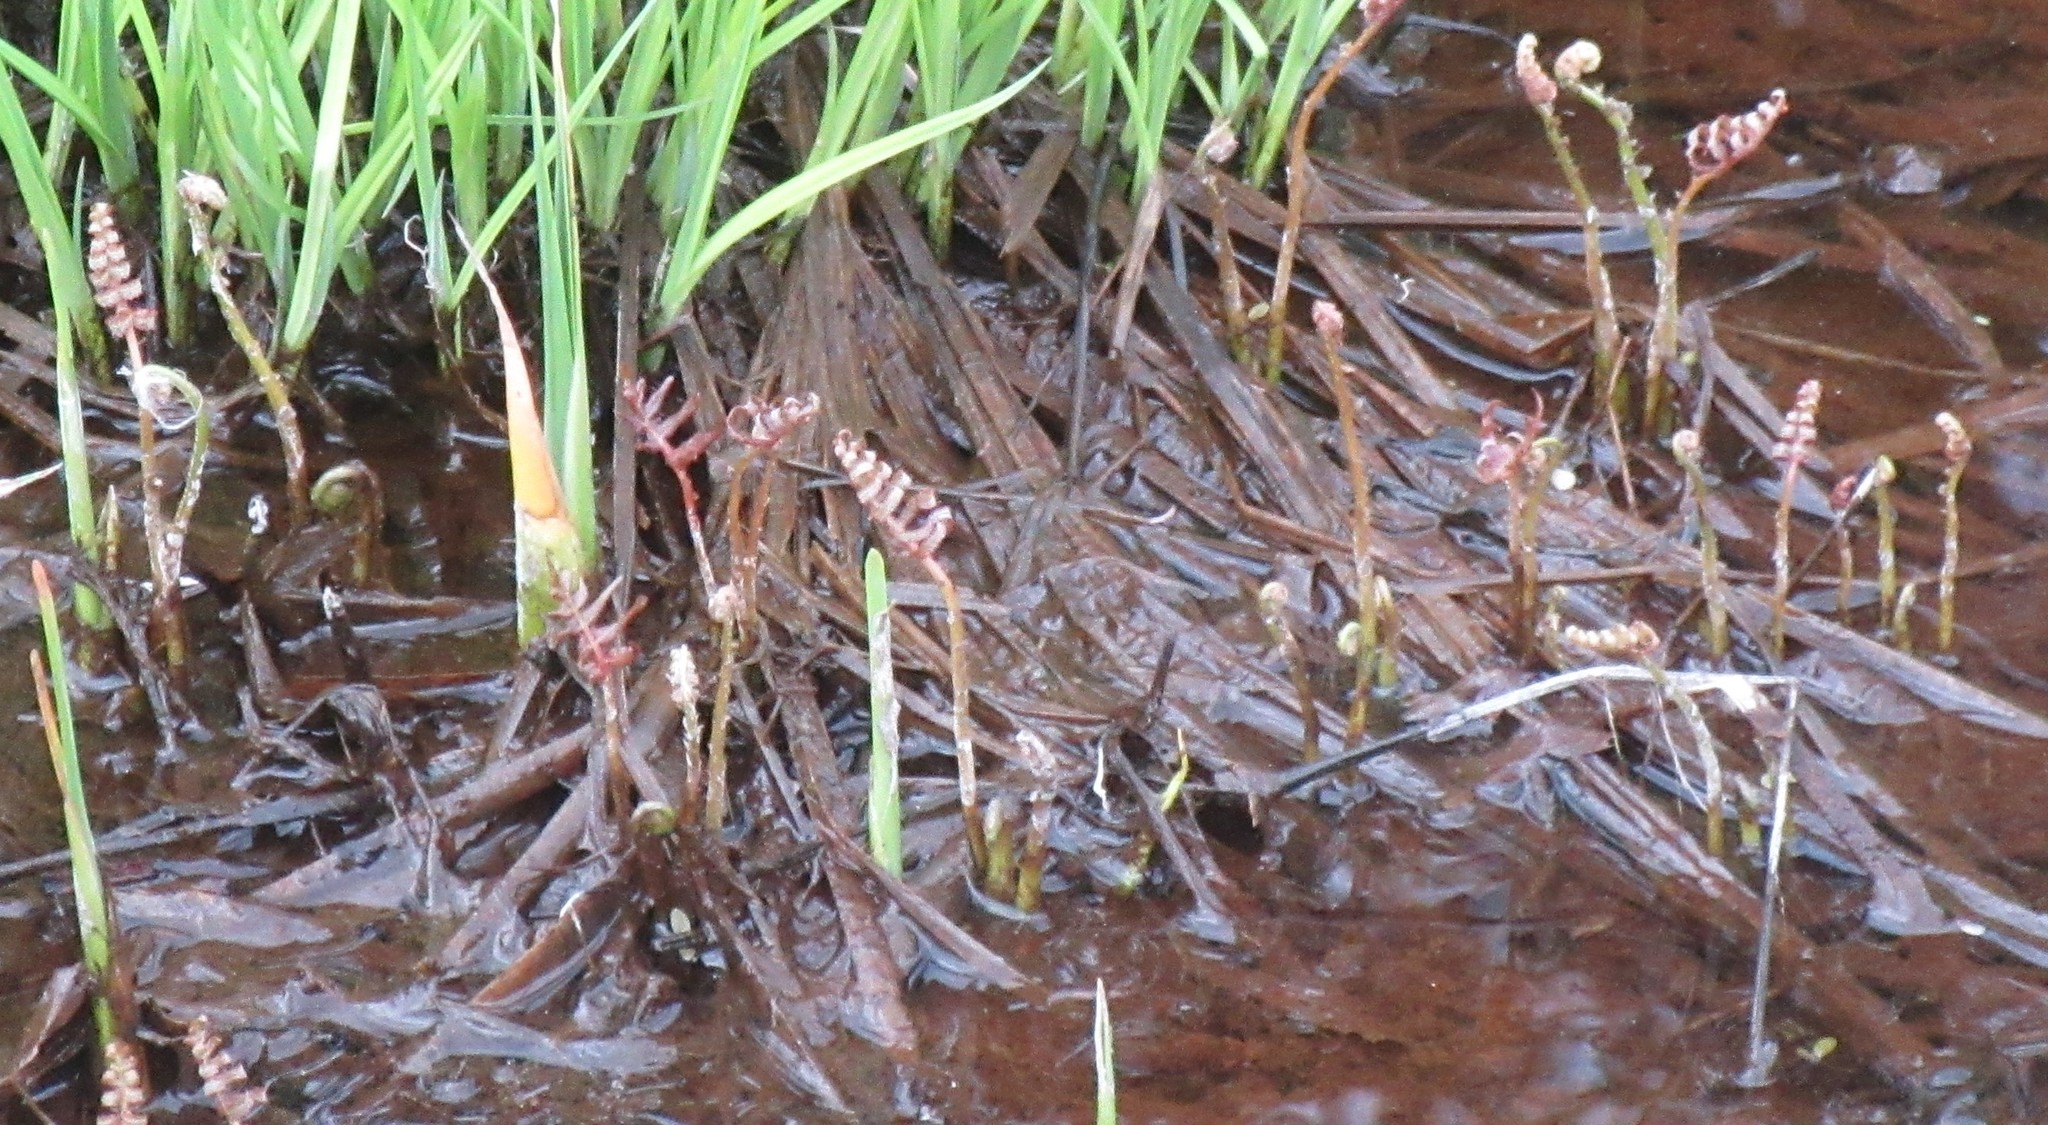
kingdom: Plantae
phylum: Tracheophyta
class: Polypodiopsida
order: Polypodiales
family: Onocleaceae
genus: Onoclea
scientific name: Onoclea sensibilis
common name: Sensitive fern
